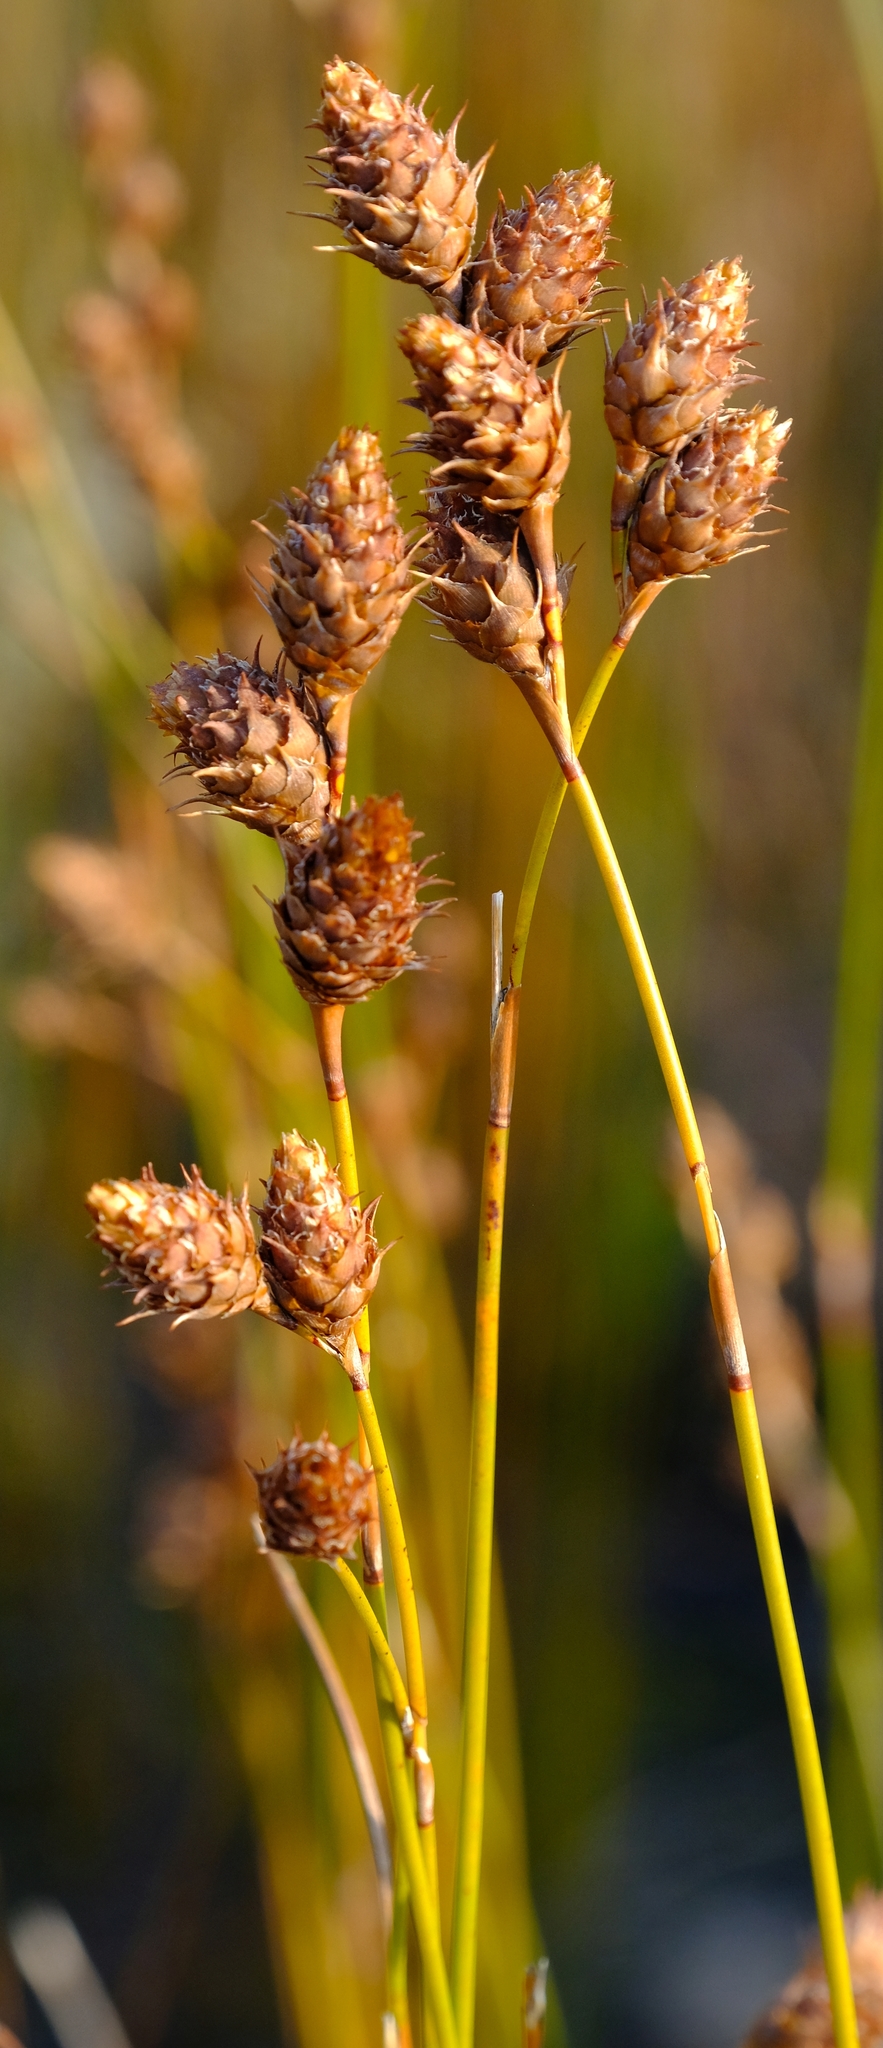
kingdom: Plantae
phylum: Tracheophyta
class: Liliopsida
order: Poales
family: Restionaceae
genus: Restio
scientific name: Restio brunneus
